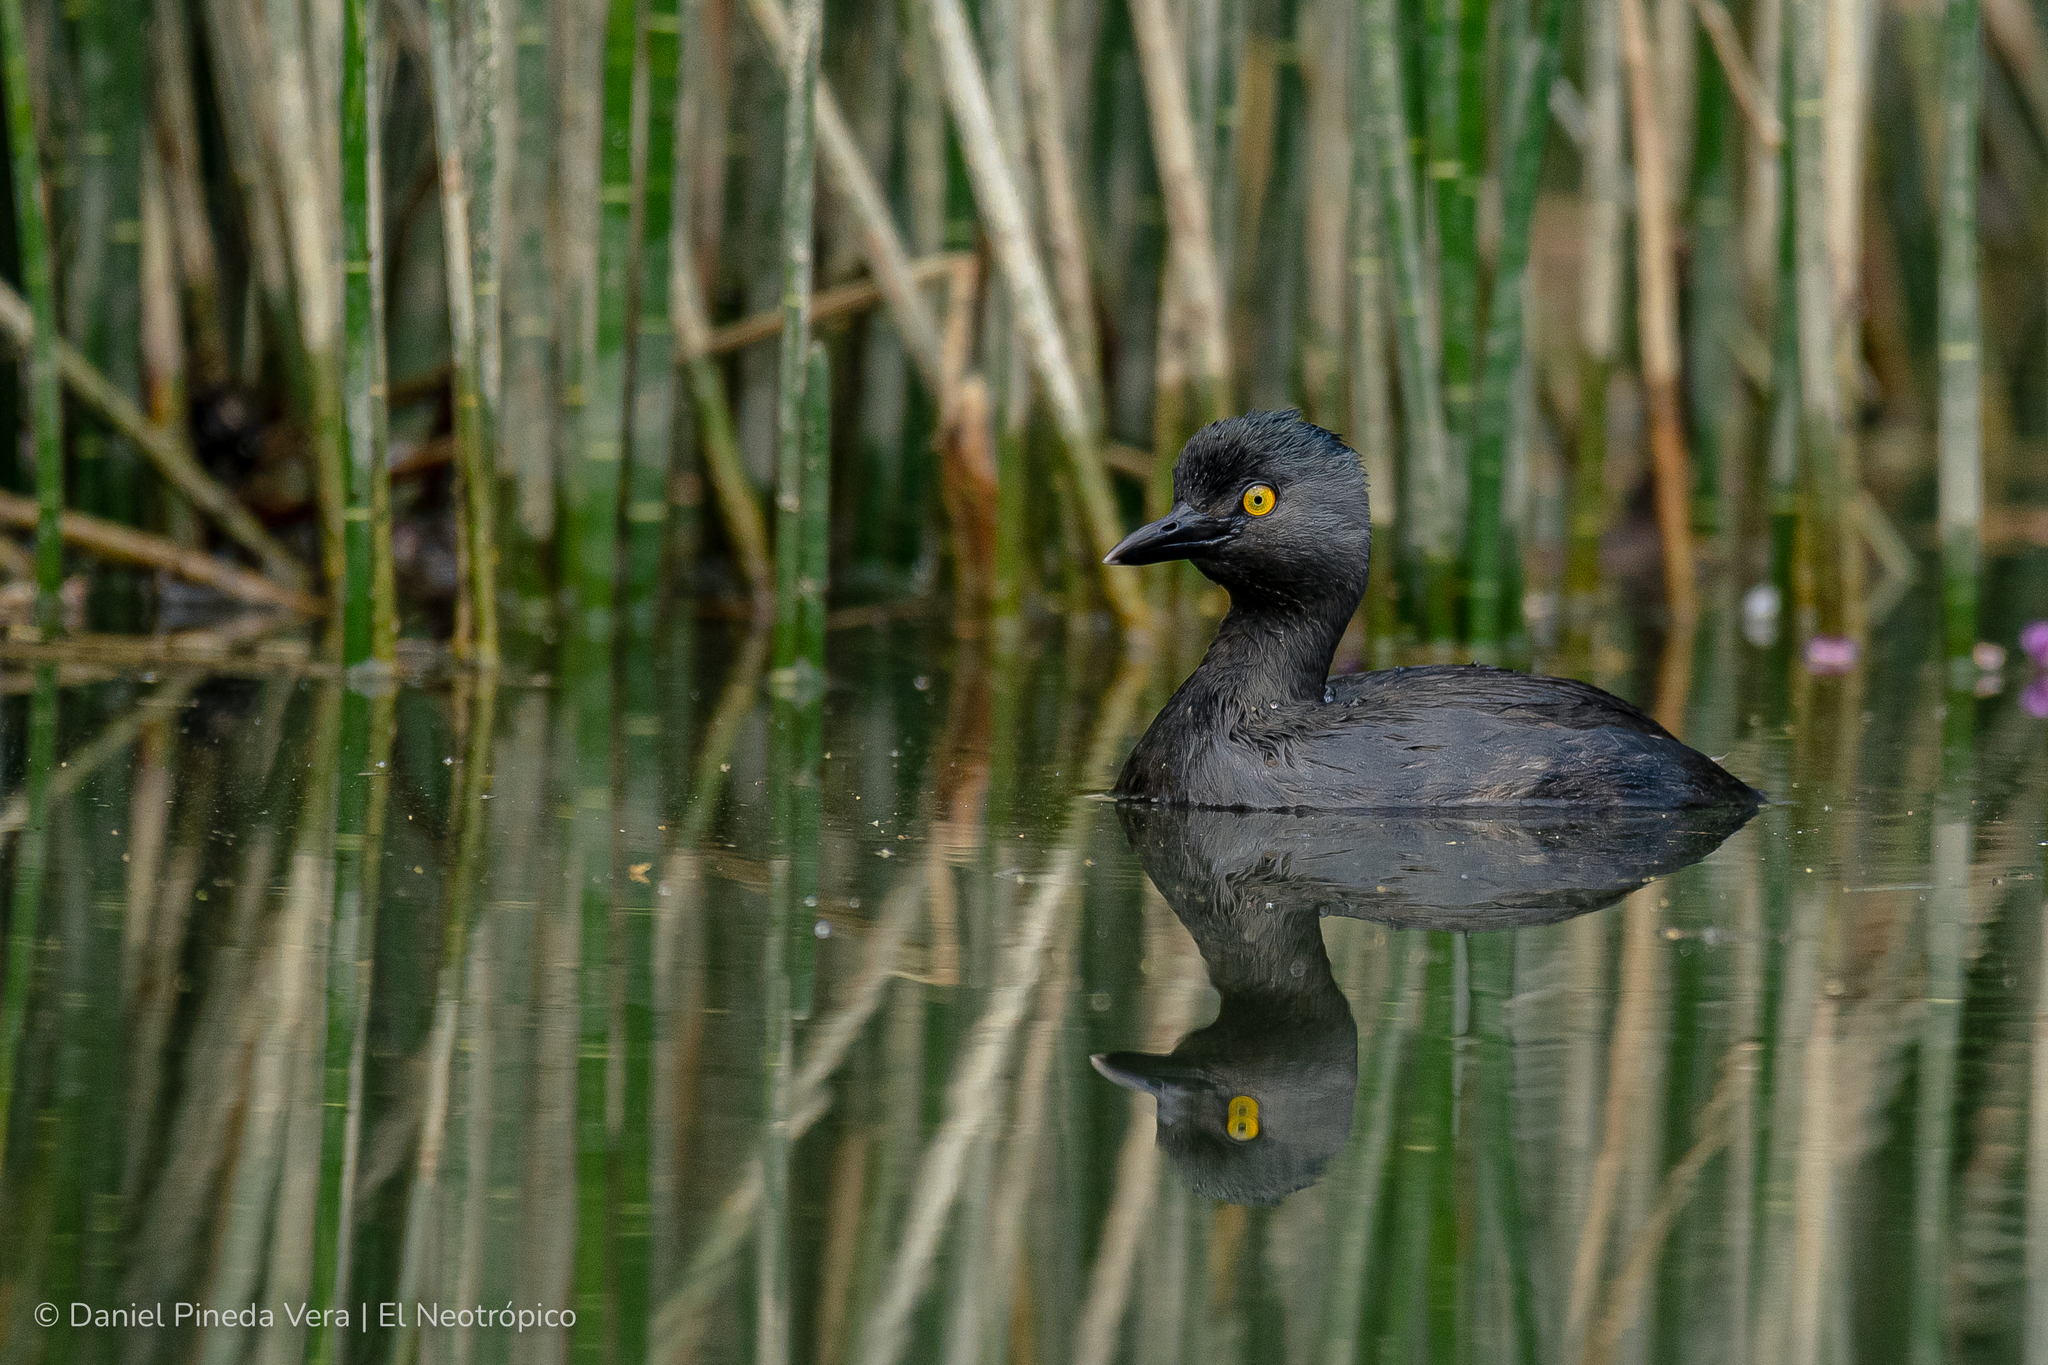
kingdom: Animalia
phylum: Chordata
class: Aves
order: Podicipediformes
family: Podicipedidae
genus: Tachybaptus
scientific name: Tachybaptus dominicus
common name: Least grebe
